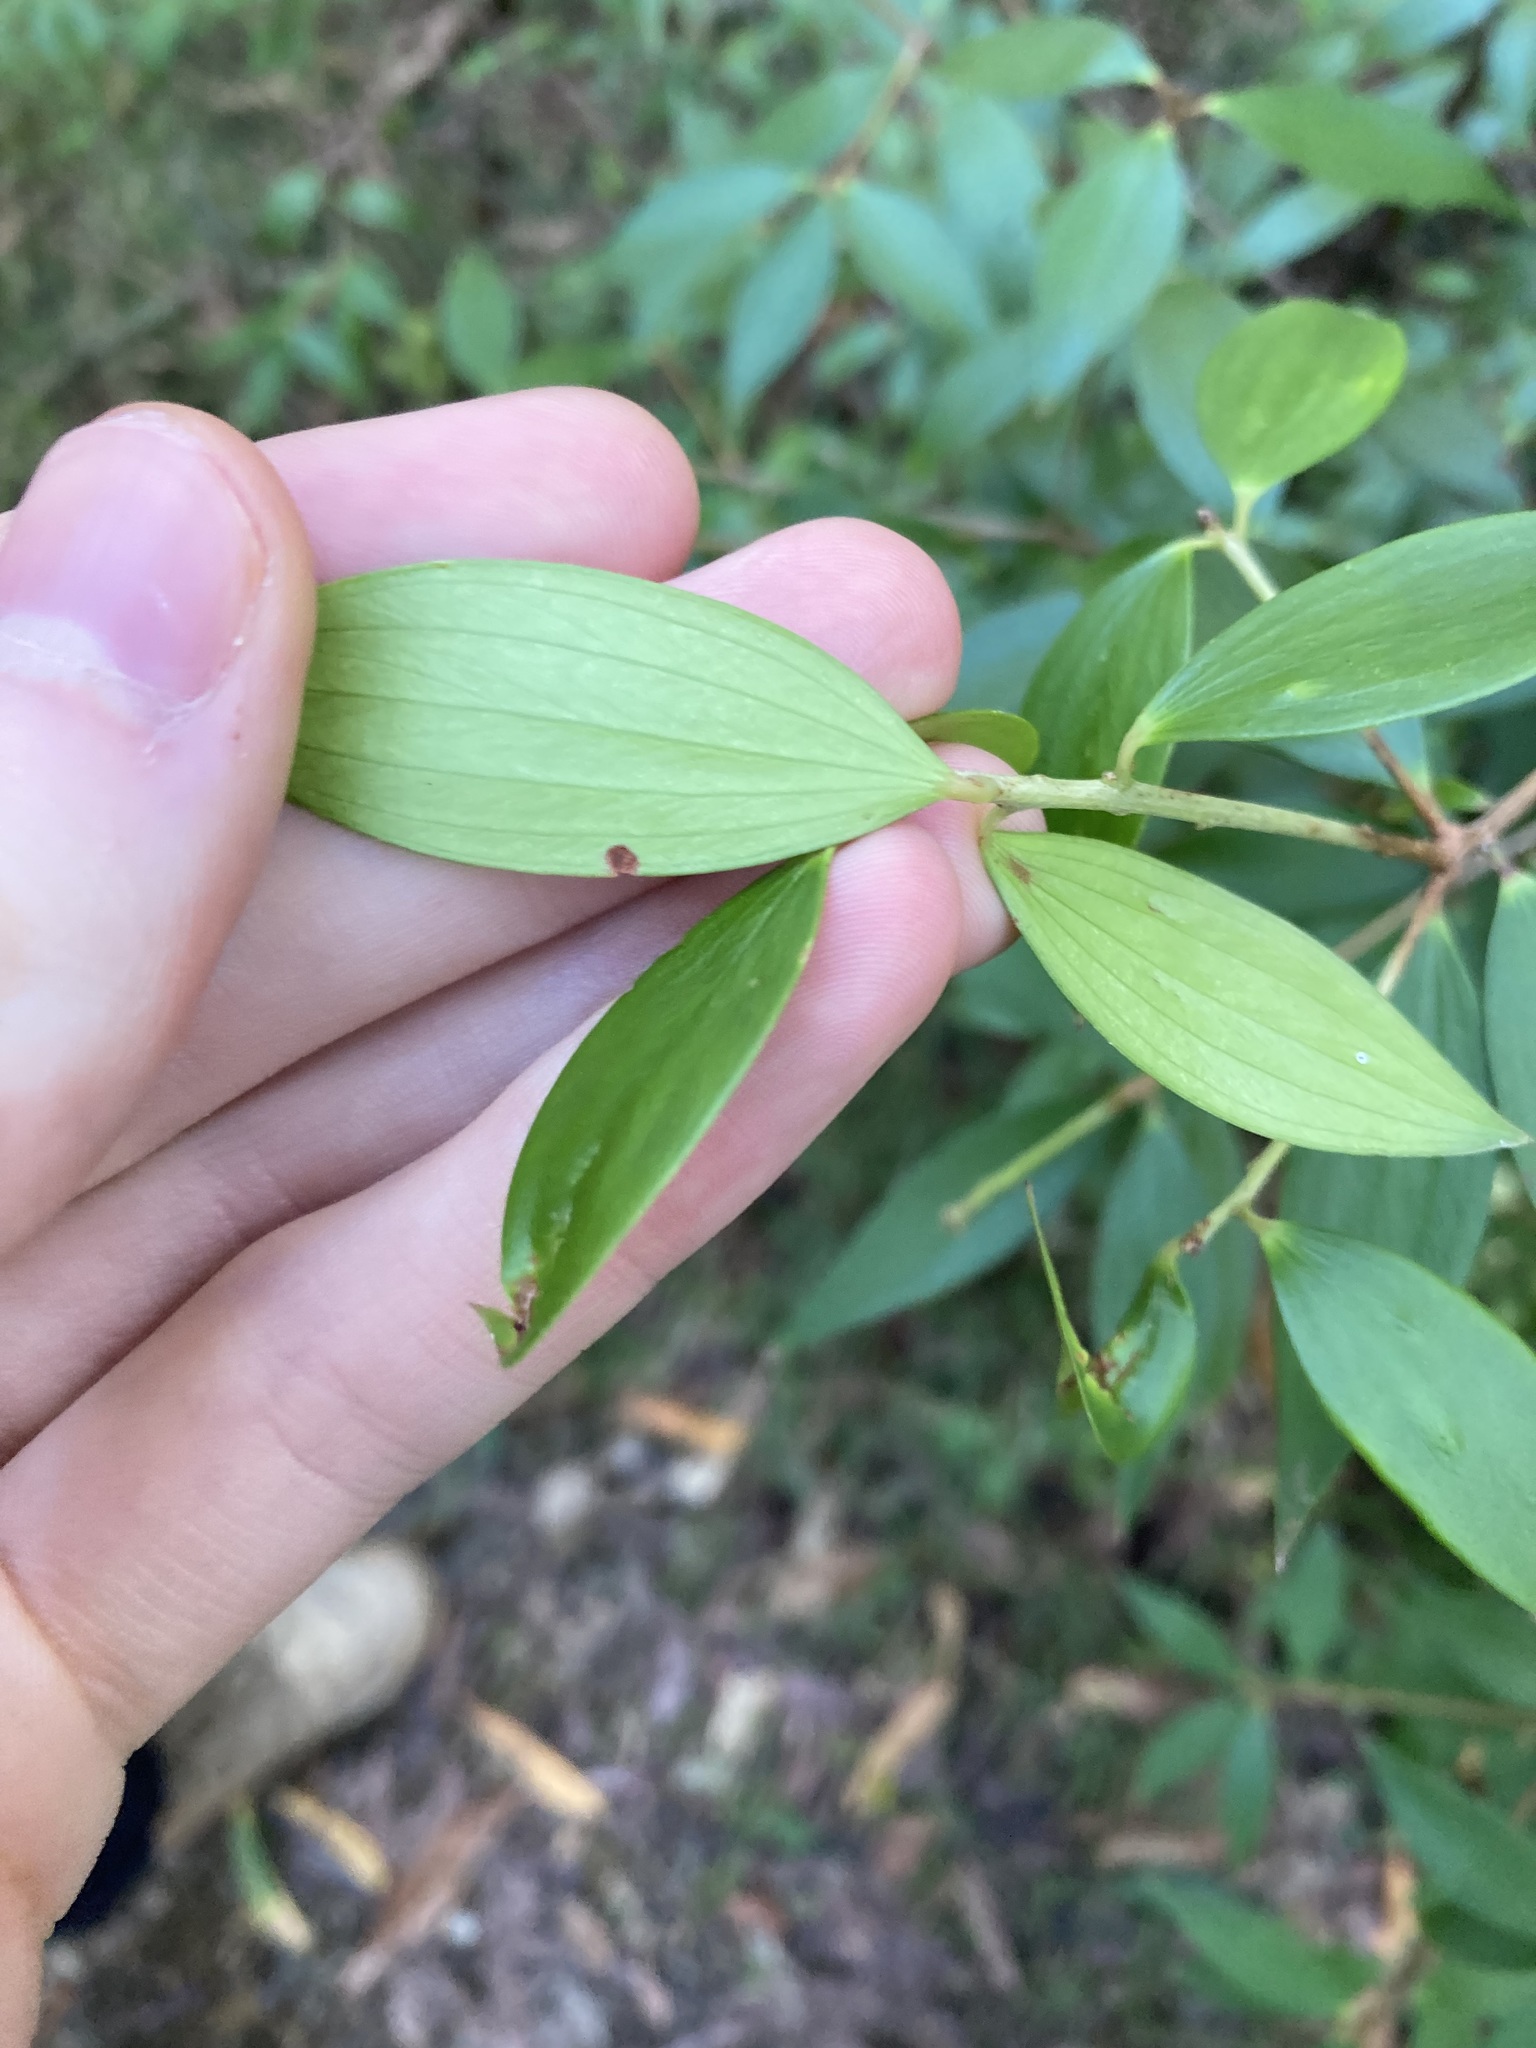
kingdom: Plantae
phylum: Tracheophyta
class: Magnoliopsida
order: Ericales
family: Ericaceae
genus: Trochocarpa
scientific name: Trochocarpa laurina
